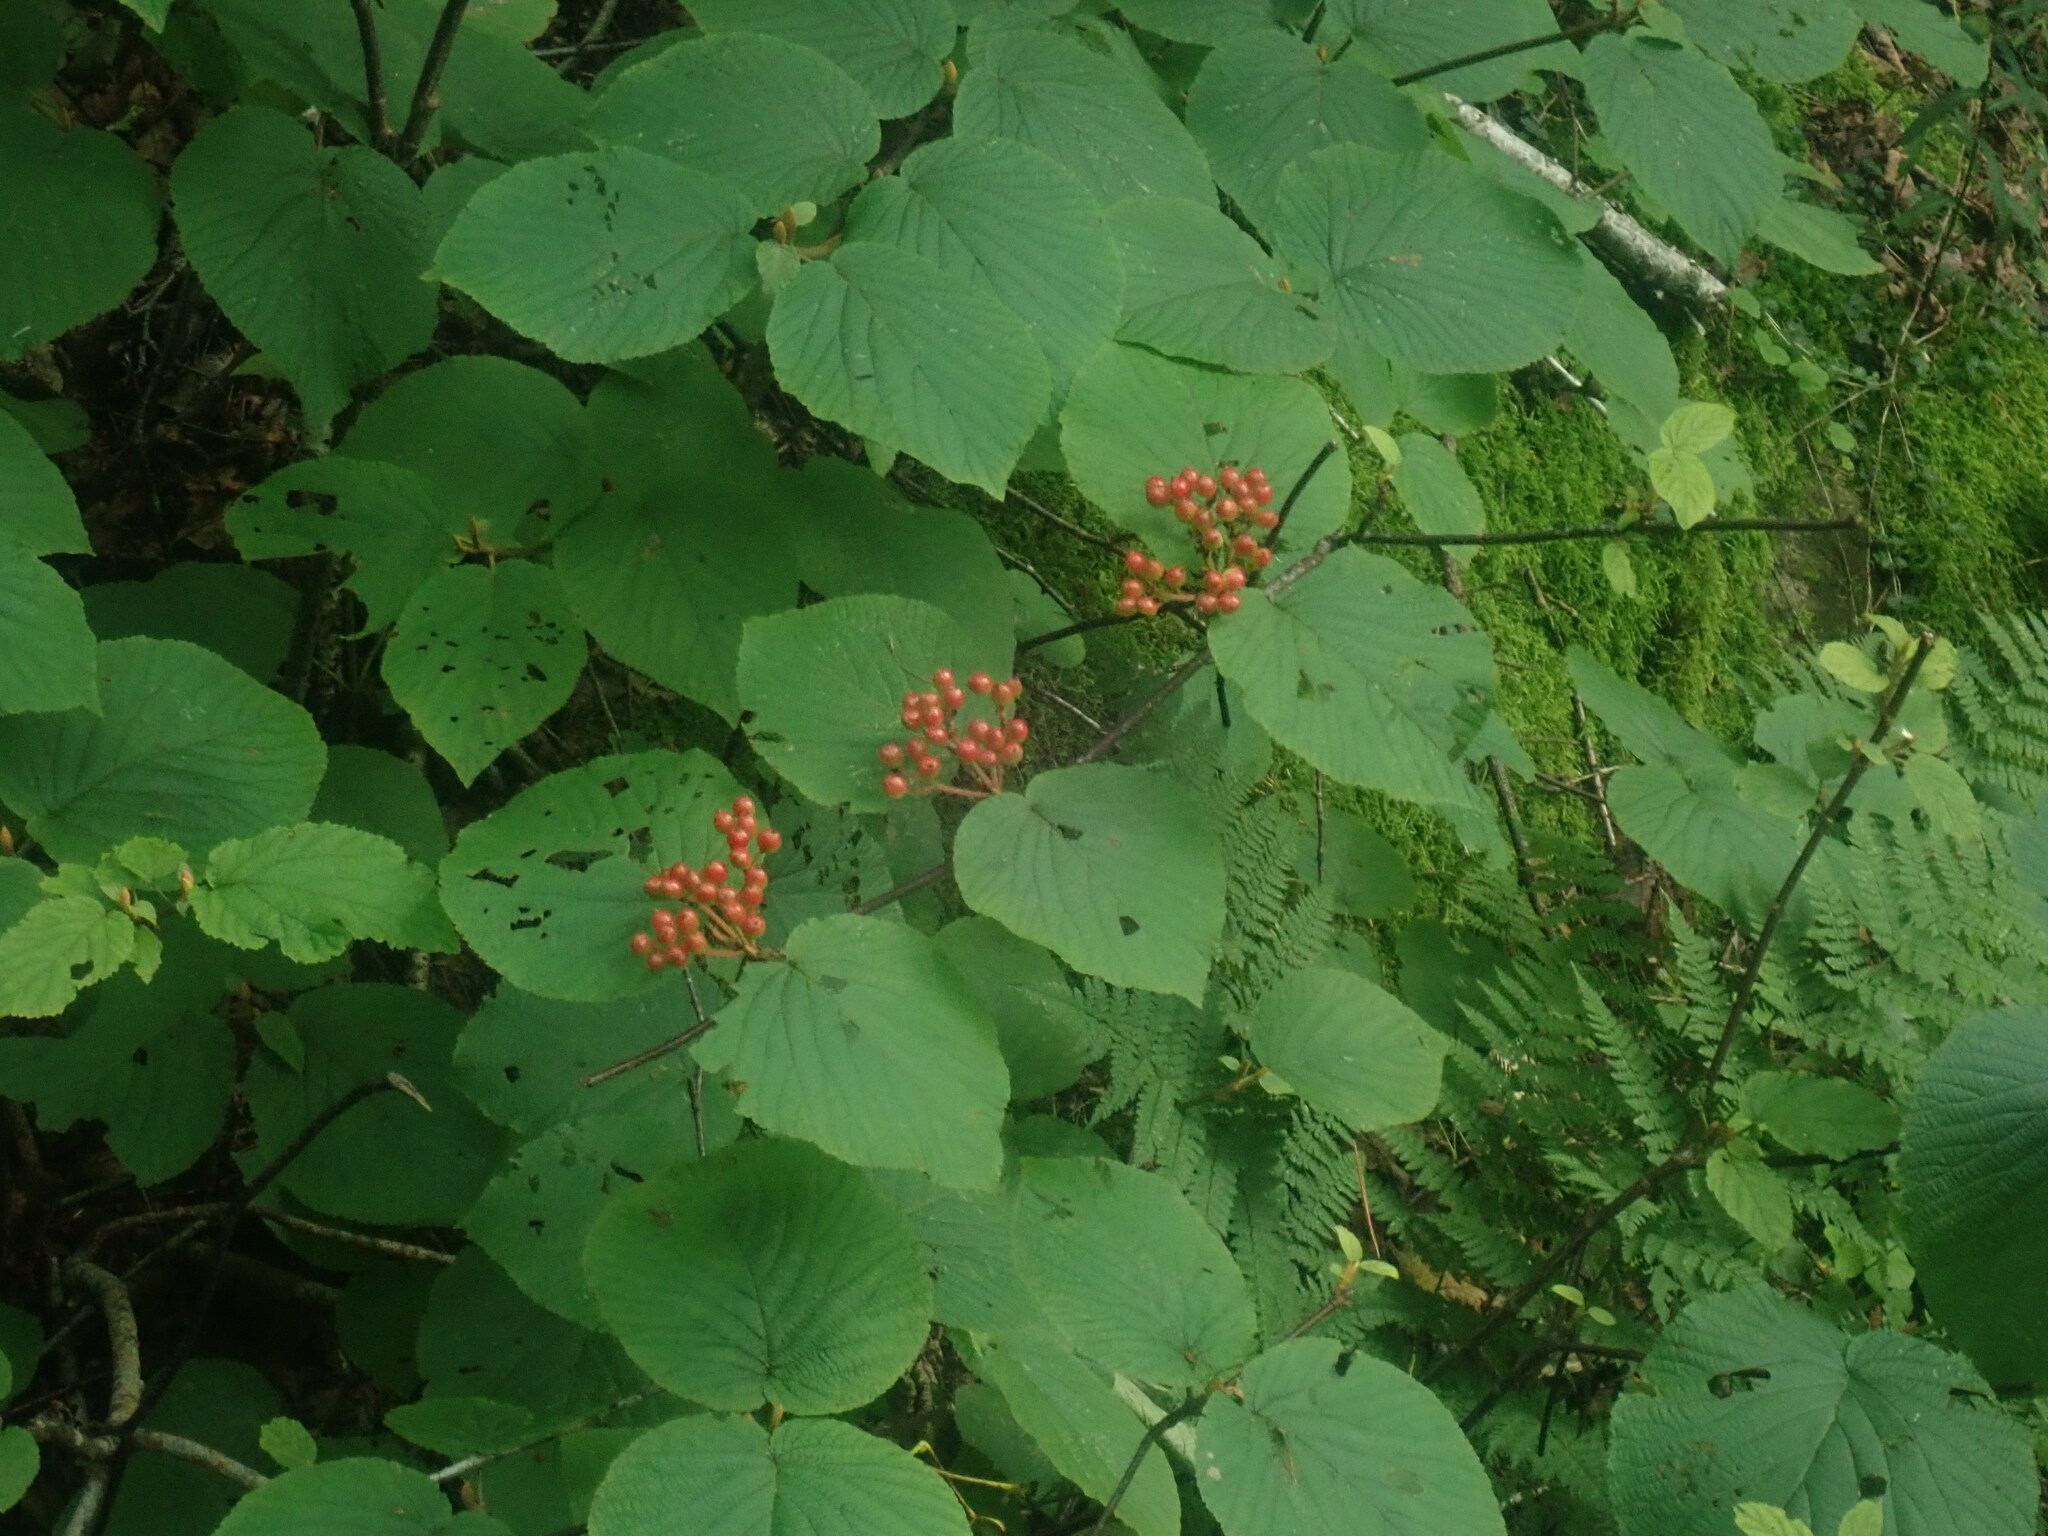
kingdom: Plantae
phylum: Tracheophyta
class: Magnoliopsida
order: Dipsacales
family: Viburnaceae
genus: Viburnum
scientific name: Viburnum lantanoides
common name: Hobblebush
